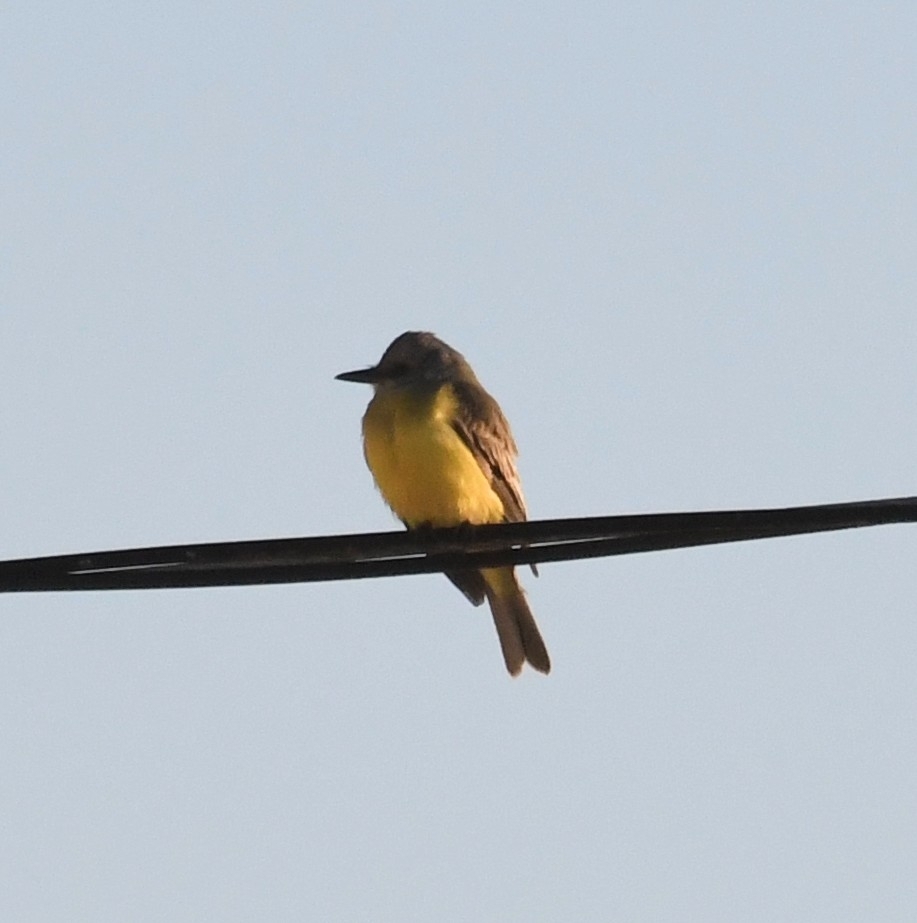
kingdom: Animalia
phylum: Chordata
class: Aves
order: Passeriformes
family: Tyrannidae
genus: Tyrannus
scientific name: Tyrannus melancholicus
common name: Tropical kingbird
